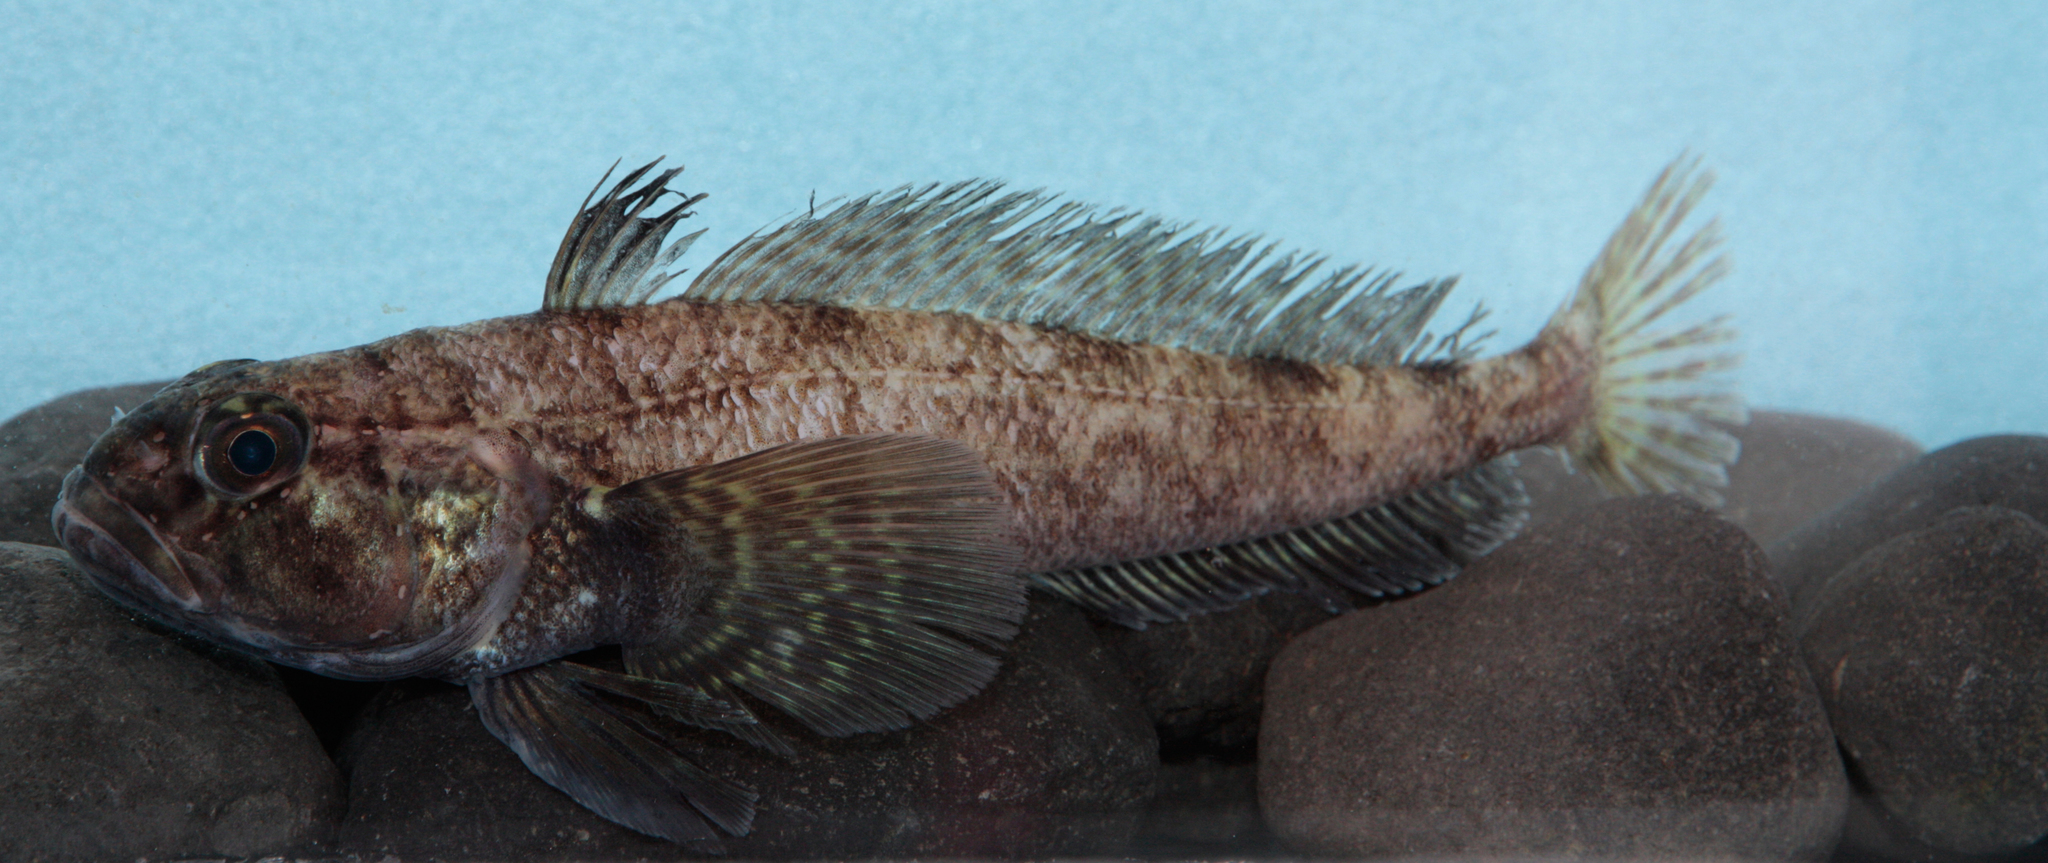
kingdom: Animalia
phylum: Chordata
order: Perciformes
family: Nototheniidae
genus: Notothenia
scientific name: Notothenia coriiceps
